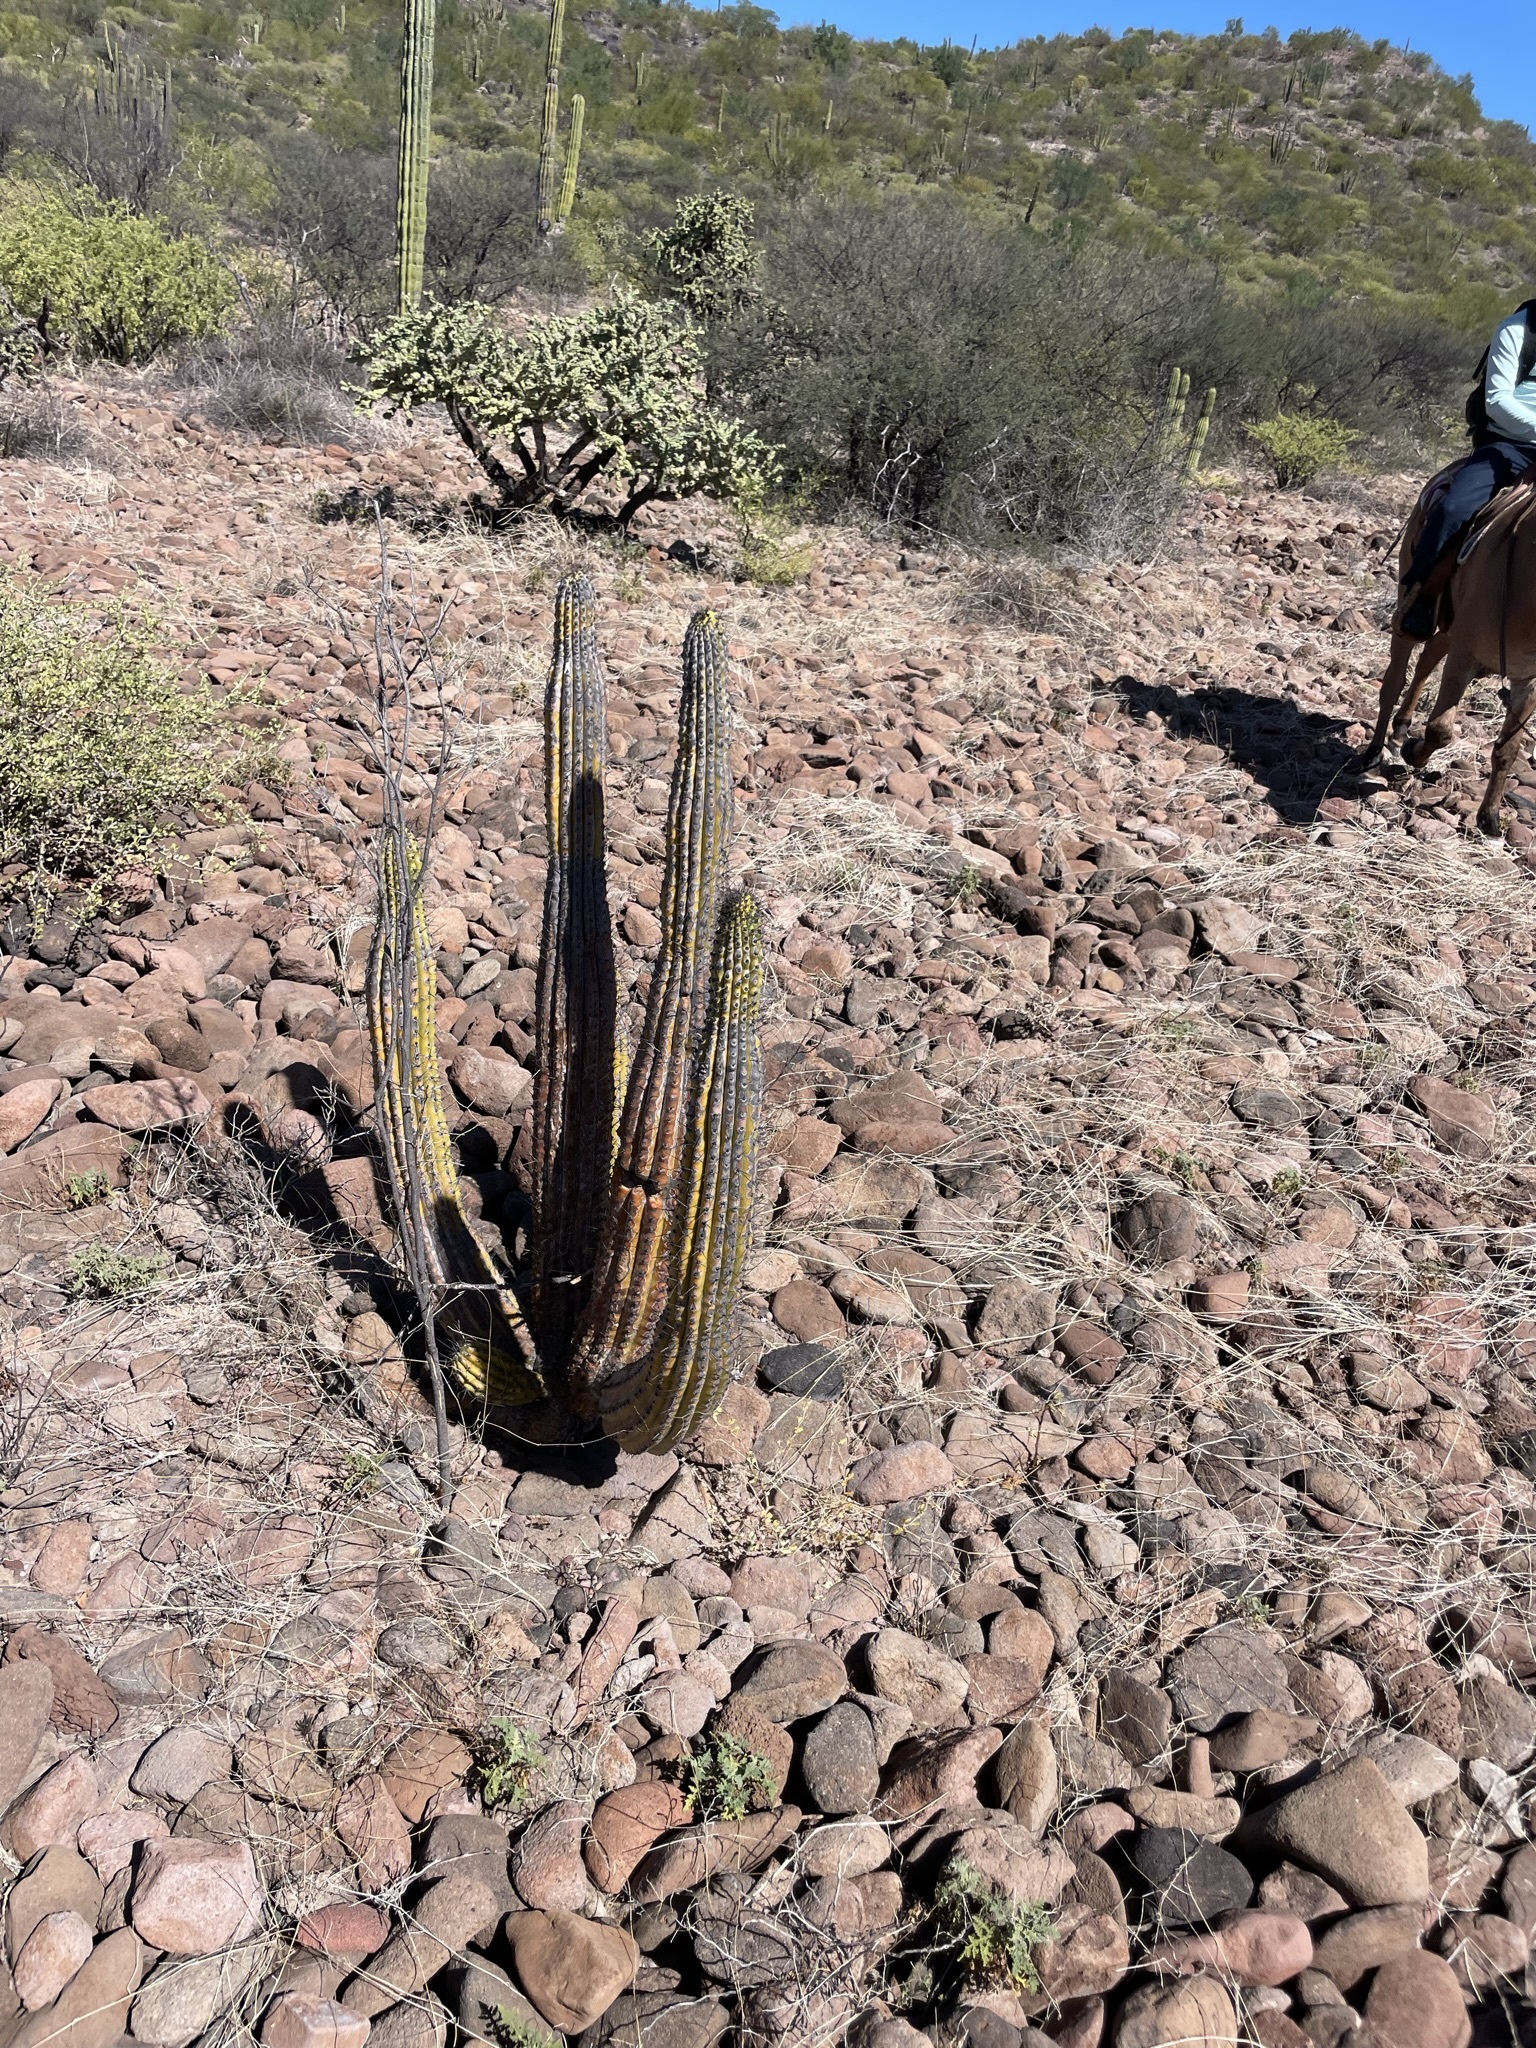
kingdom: Plantae
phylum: Tracheophyta
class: Magnoliopsida
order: Caryophyllales
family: Cactaceae
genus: Stenocereus
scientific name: Stenocereus thurberi
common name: Organ pipe cactus
